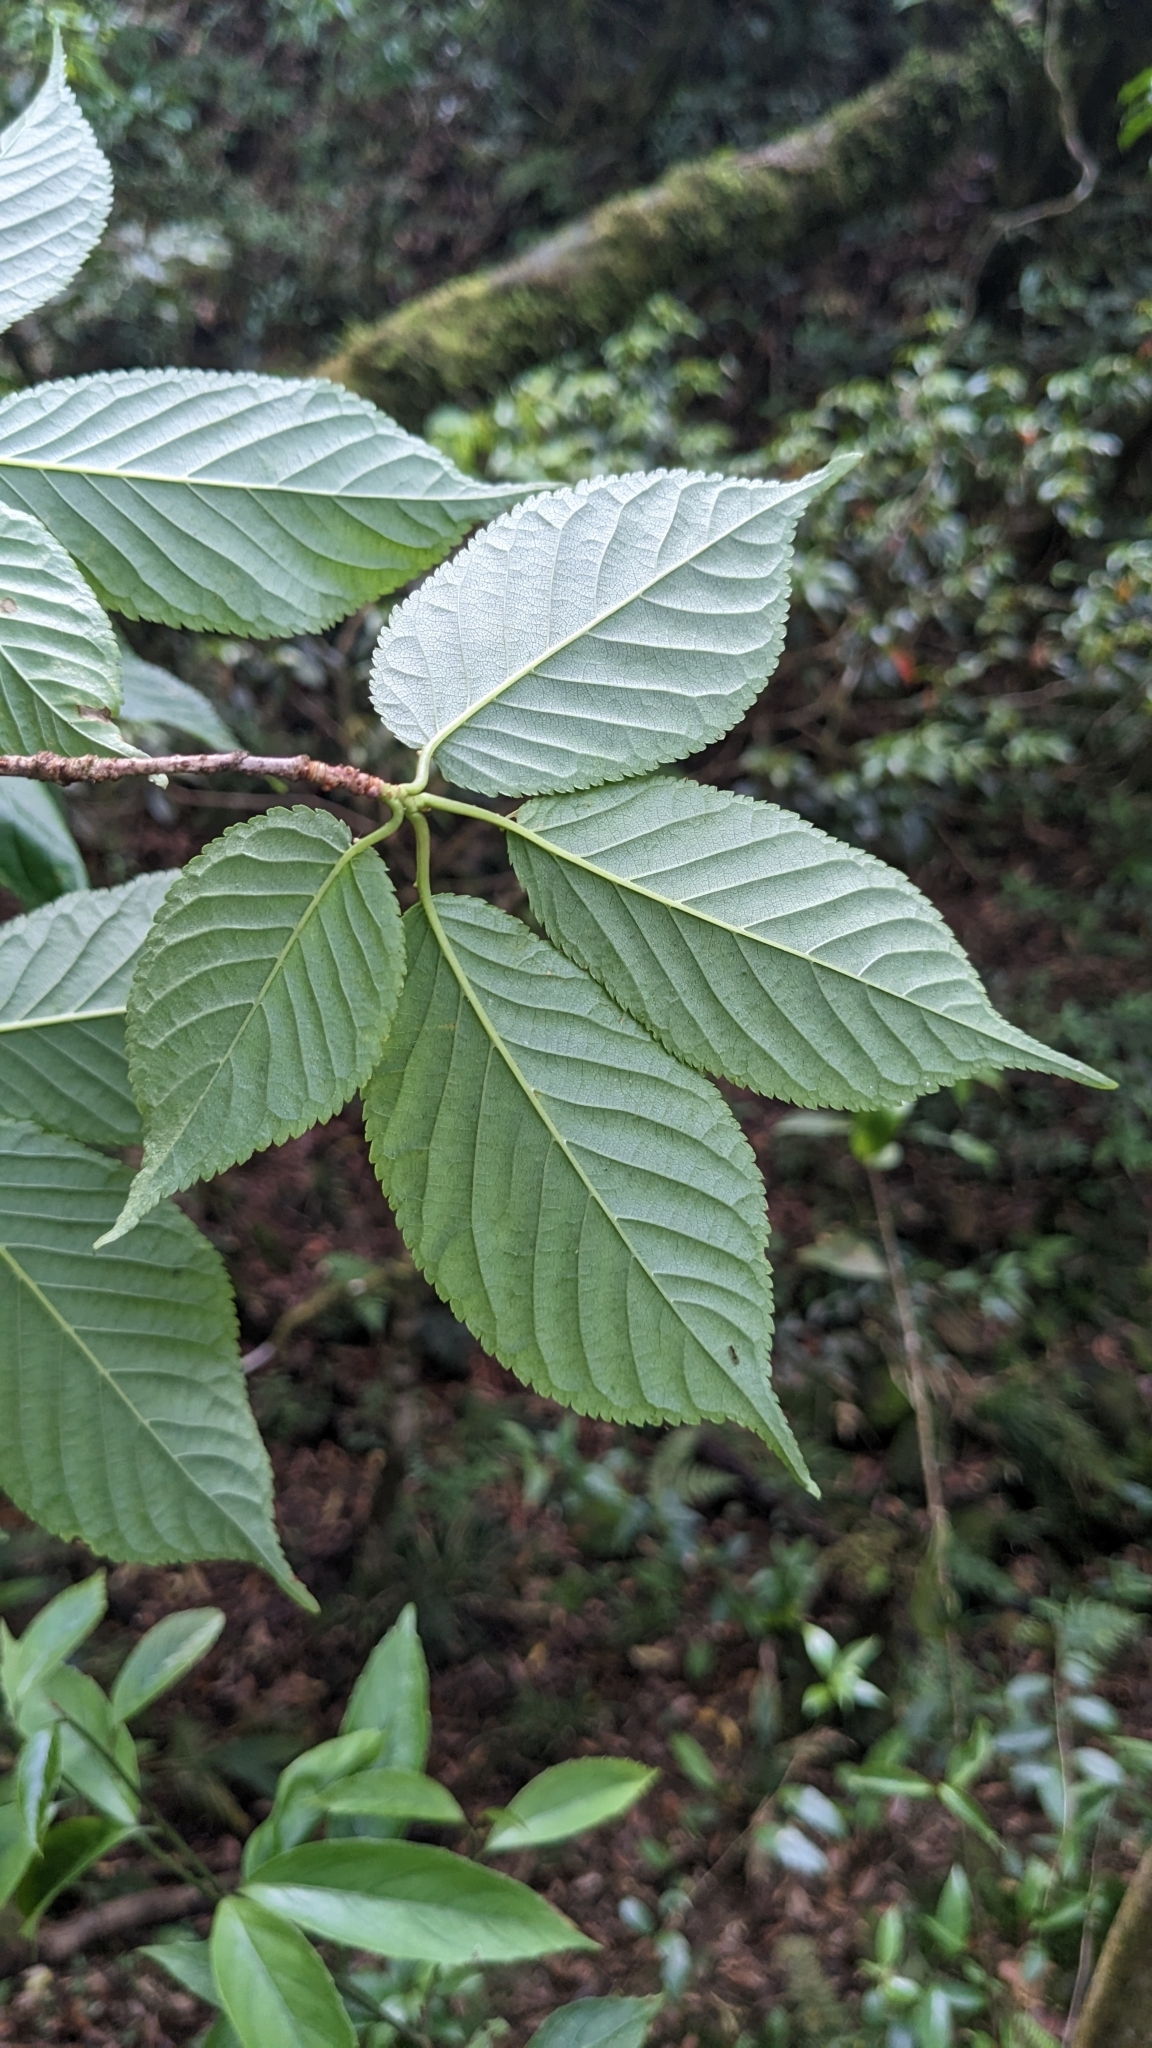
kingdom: Plantae
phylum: Tracheophyta
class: Magnoliopsida
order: Rosales
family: Rosaceae
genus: Prunus
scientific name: Prunus campanulata
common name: Taiwan flowering cherry
